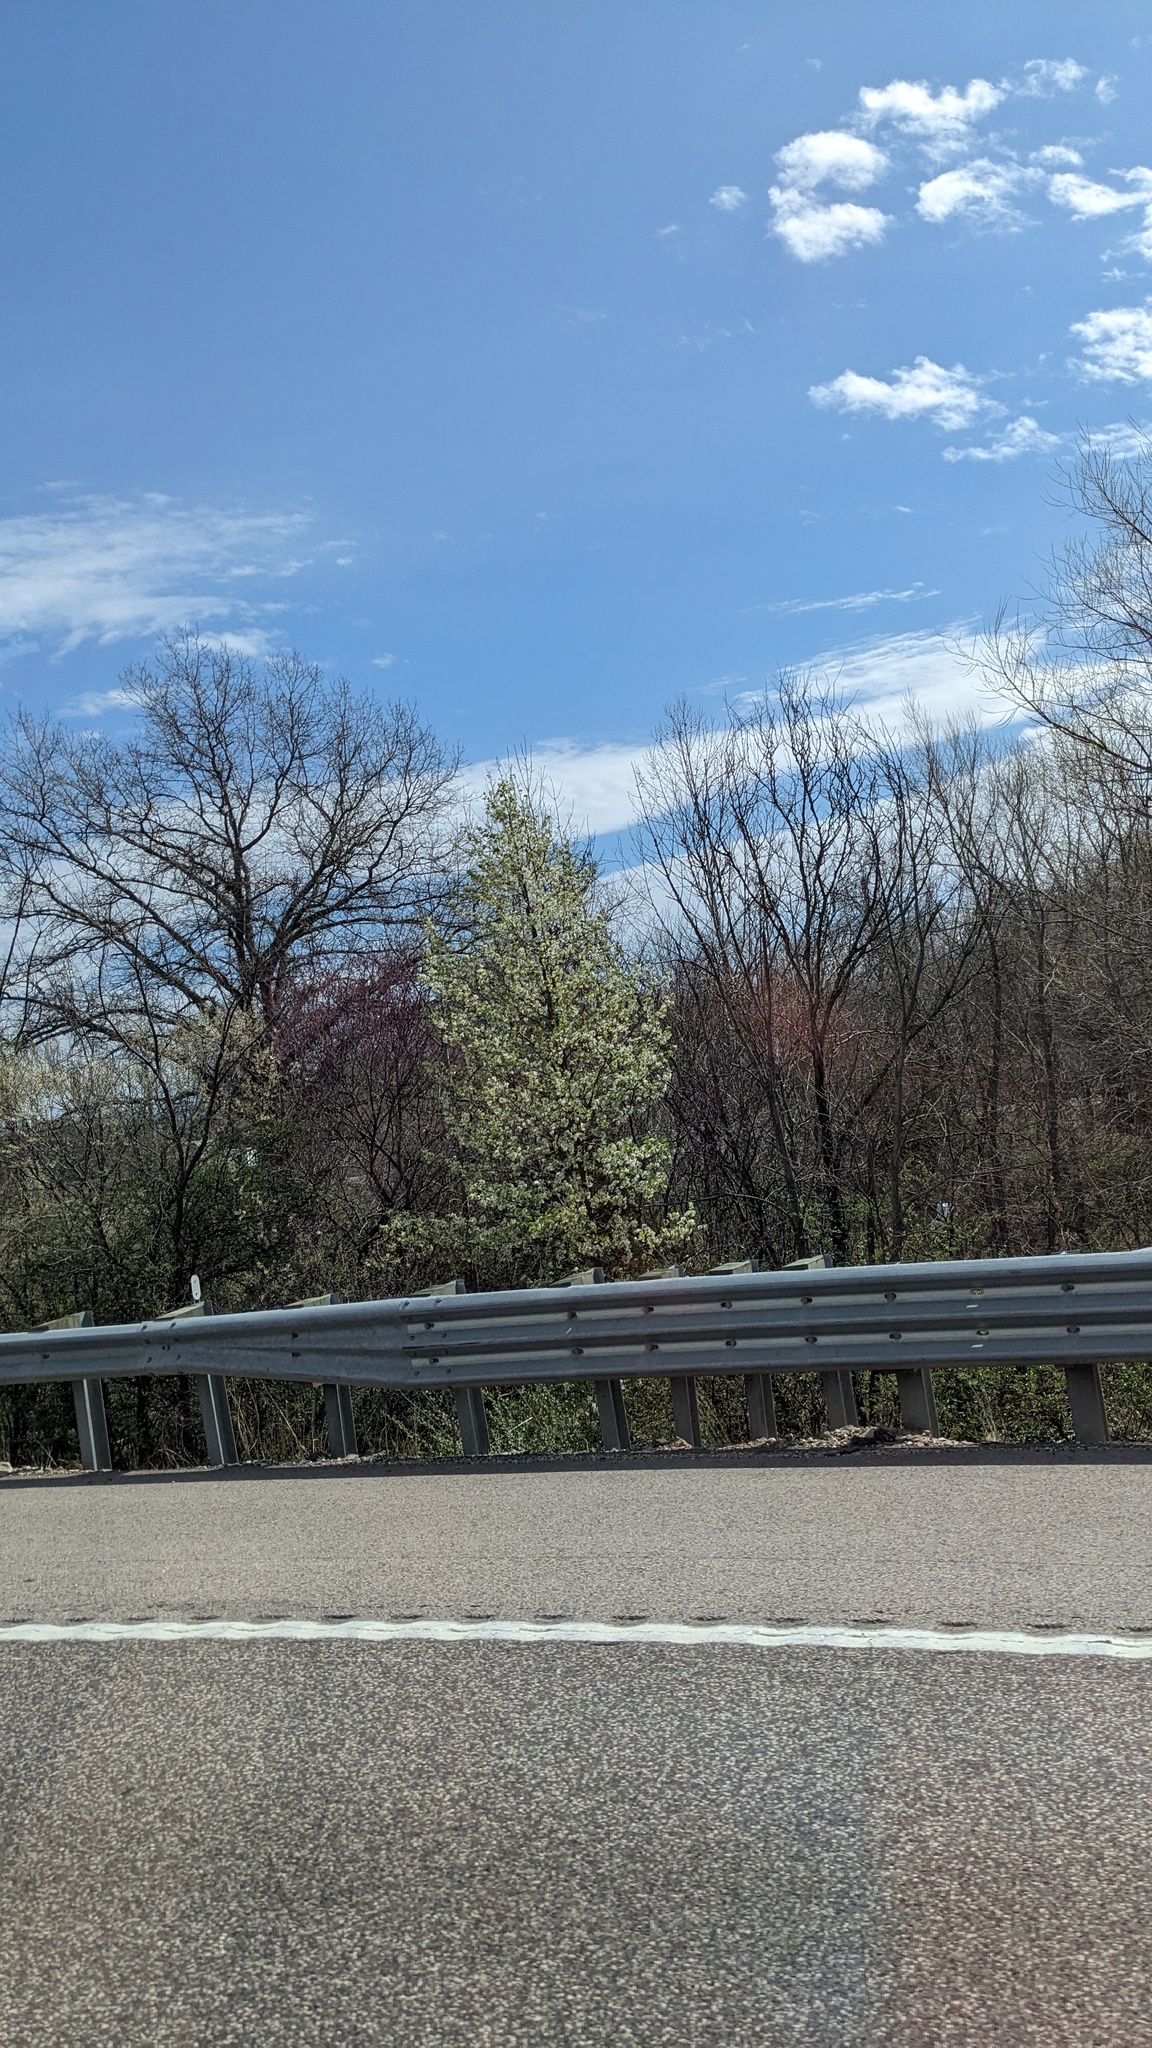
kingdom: Plantae
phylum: Tracheophyta
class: Magnoliopsida
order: Rosales
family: Rosaceae
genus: Pyrus
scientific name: Pyrus calleryana
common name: Callery pear
